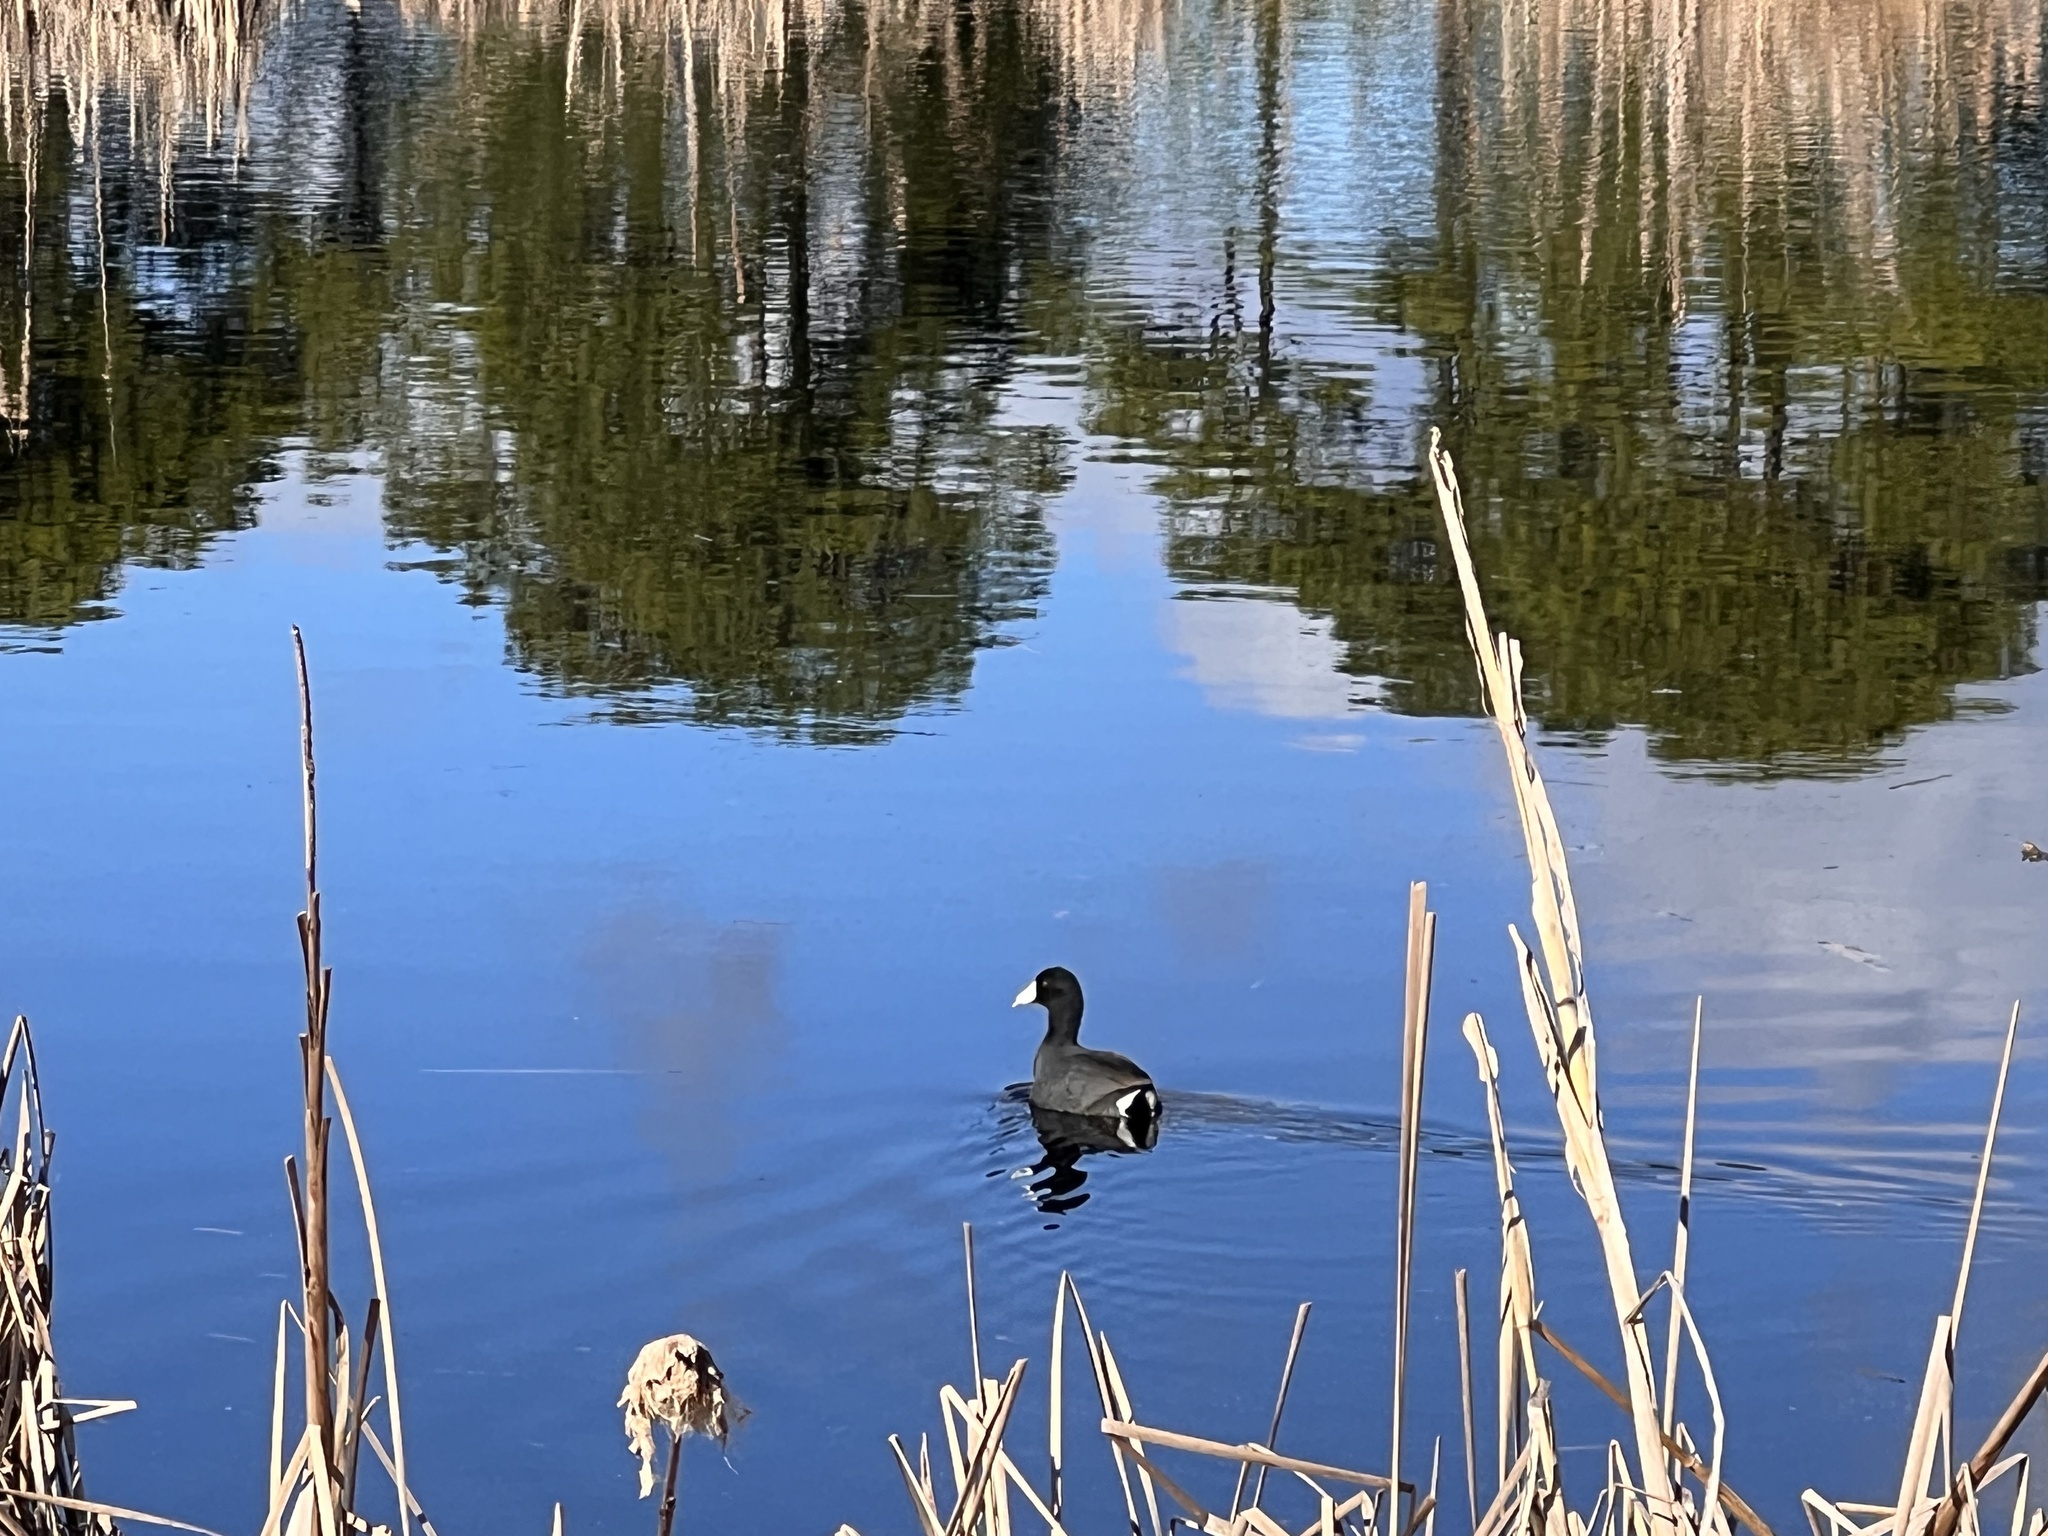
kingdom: Animalia
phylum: Chordata
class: Aves
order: Gruiformes
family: Rallidae
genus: Fulica
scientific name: Fulica americana
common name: American coot
